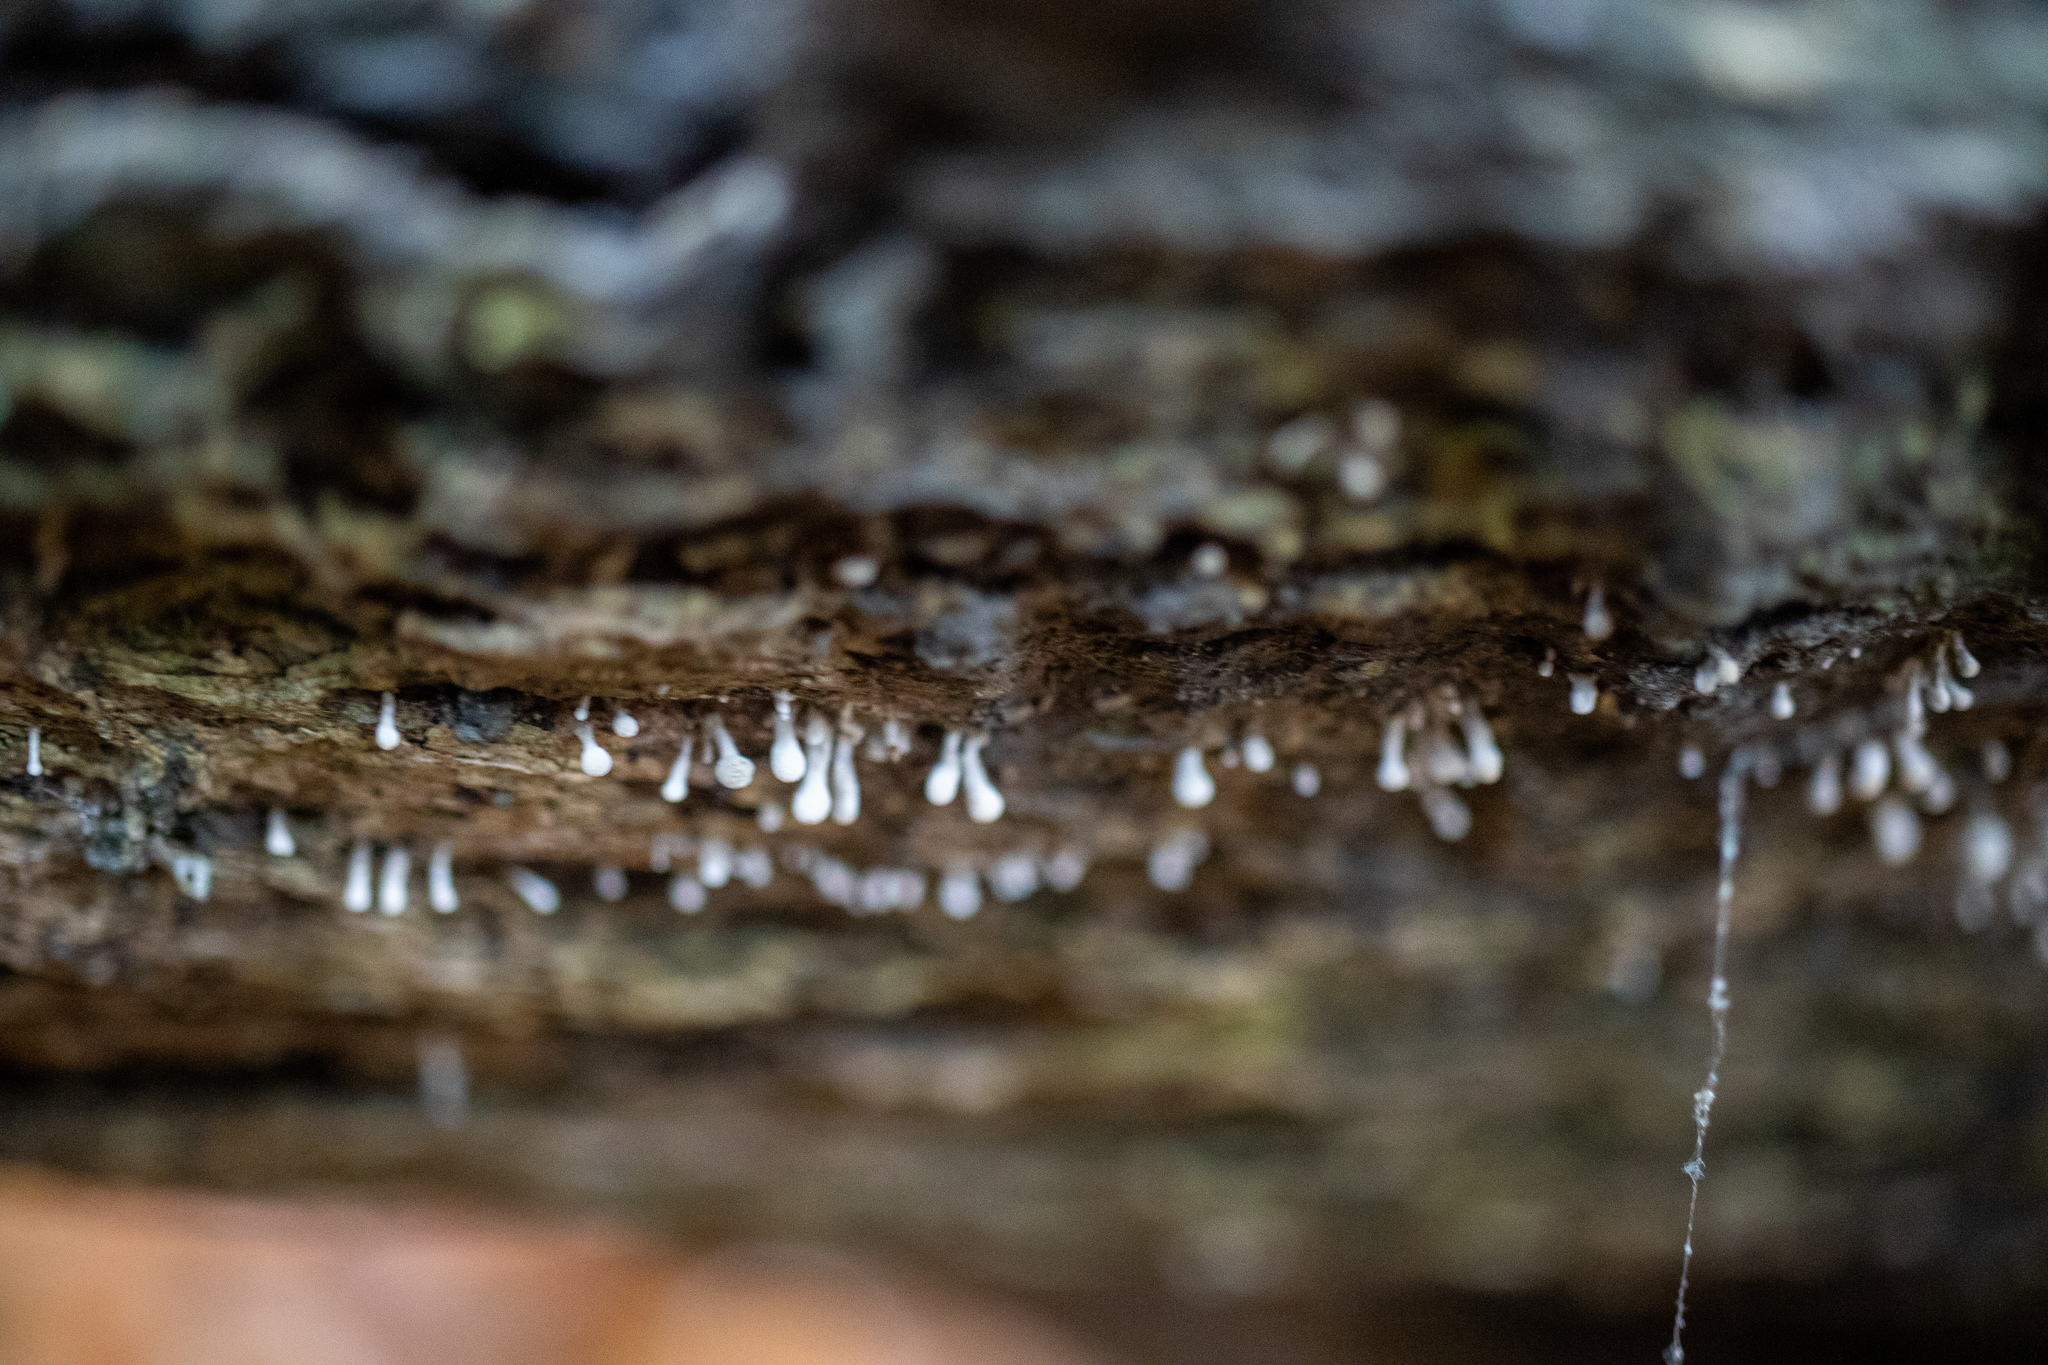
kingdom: Fungi
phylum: Basidiomycota
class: Atractiellomycetes
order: Atractiellales
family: Phleogenaceae
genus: Phleogena
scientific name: Phleogena faginea
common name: Fenugreek stalkball
